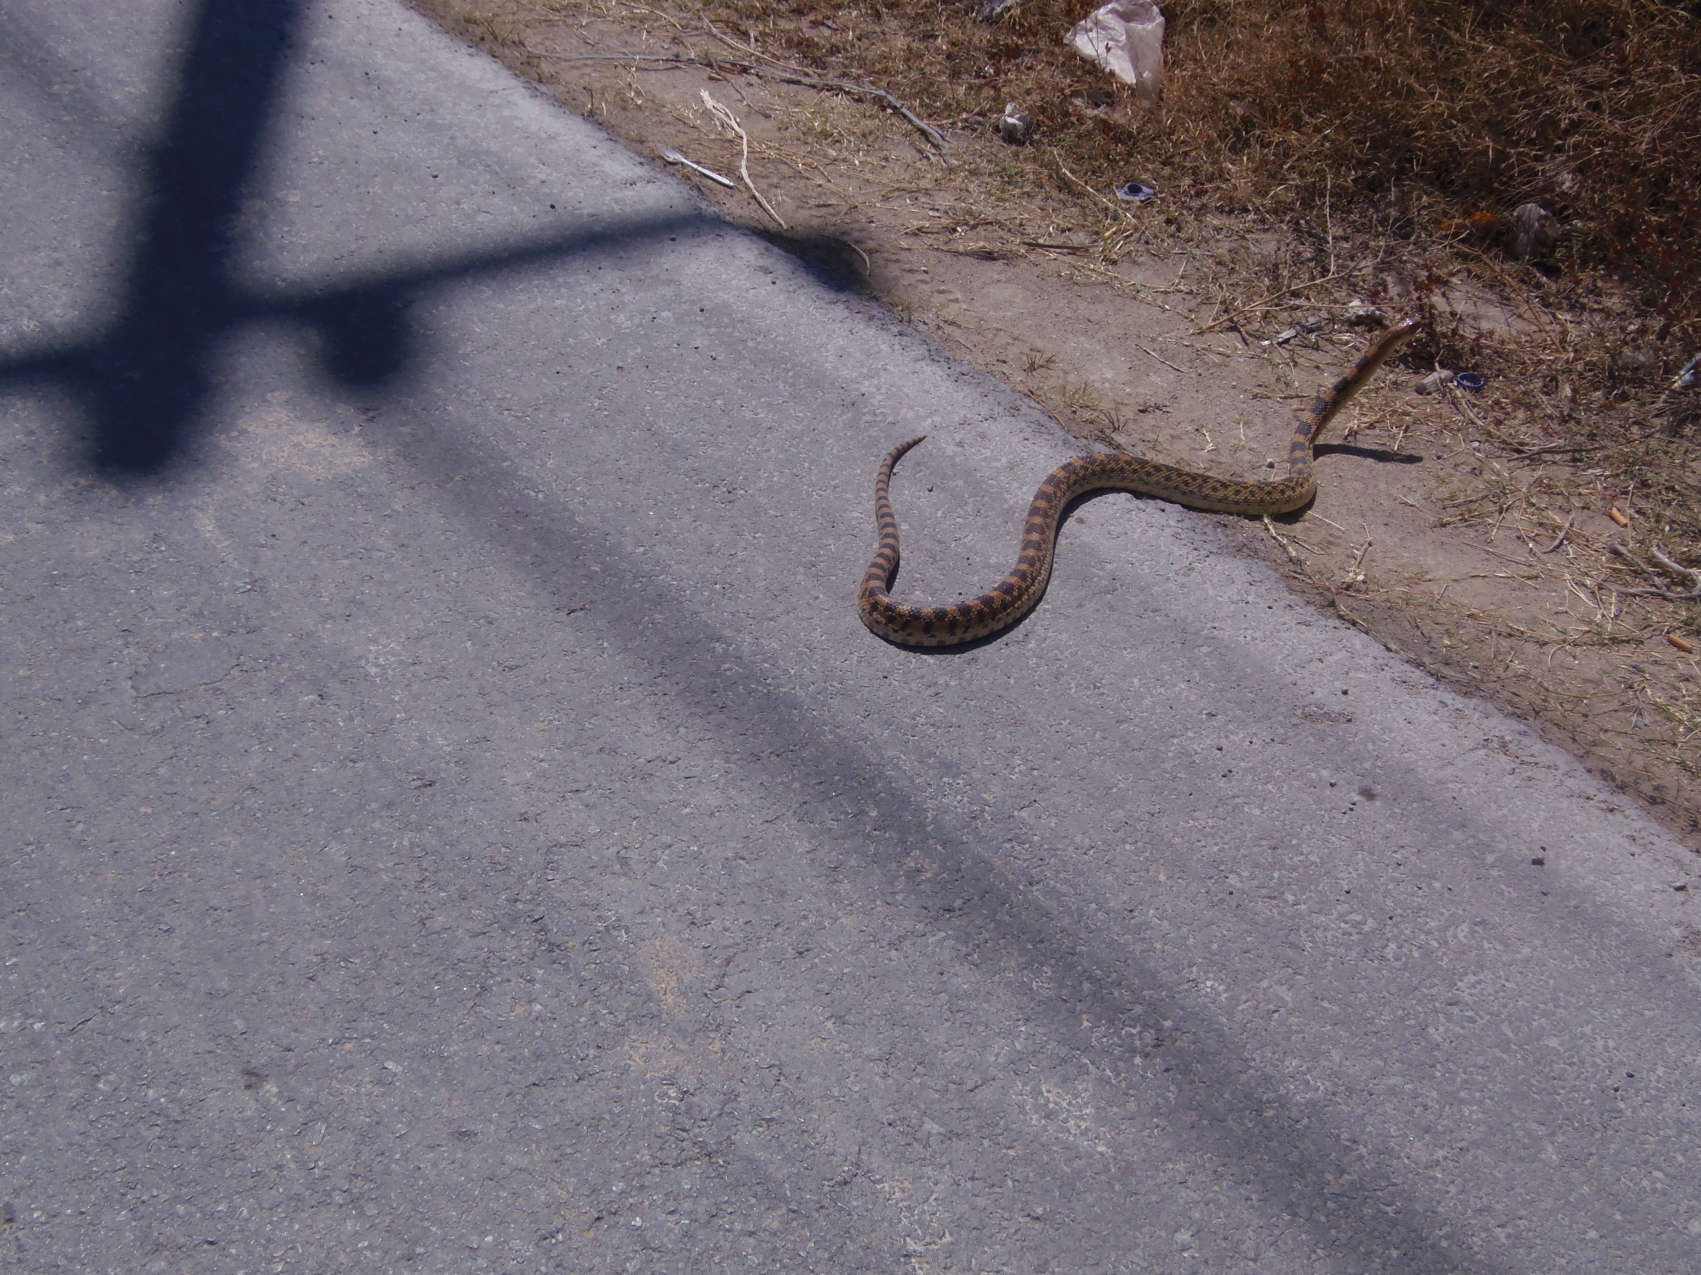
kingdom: Animalia
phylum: Chordata
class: Squamata
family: Colubridae
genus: Pituophis
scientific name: Pituophis deppei
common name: Mexican bull snake
